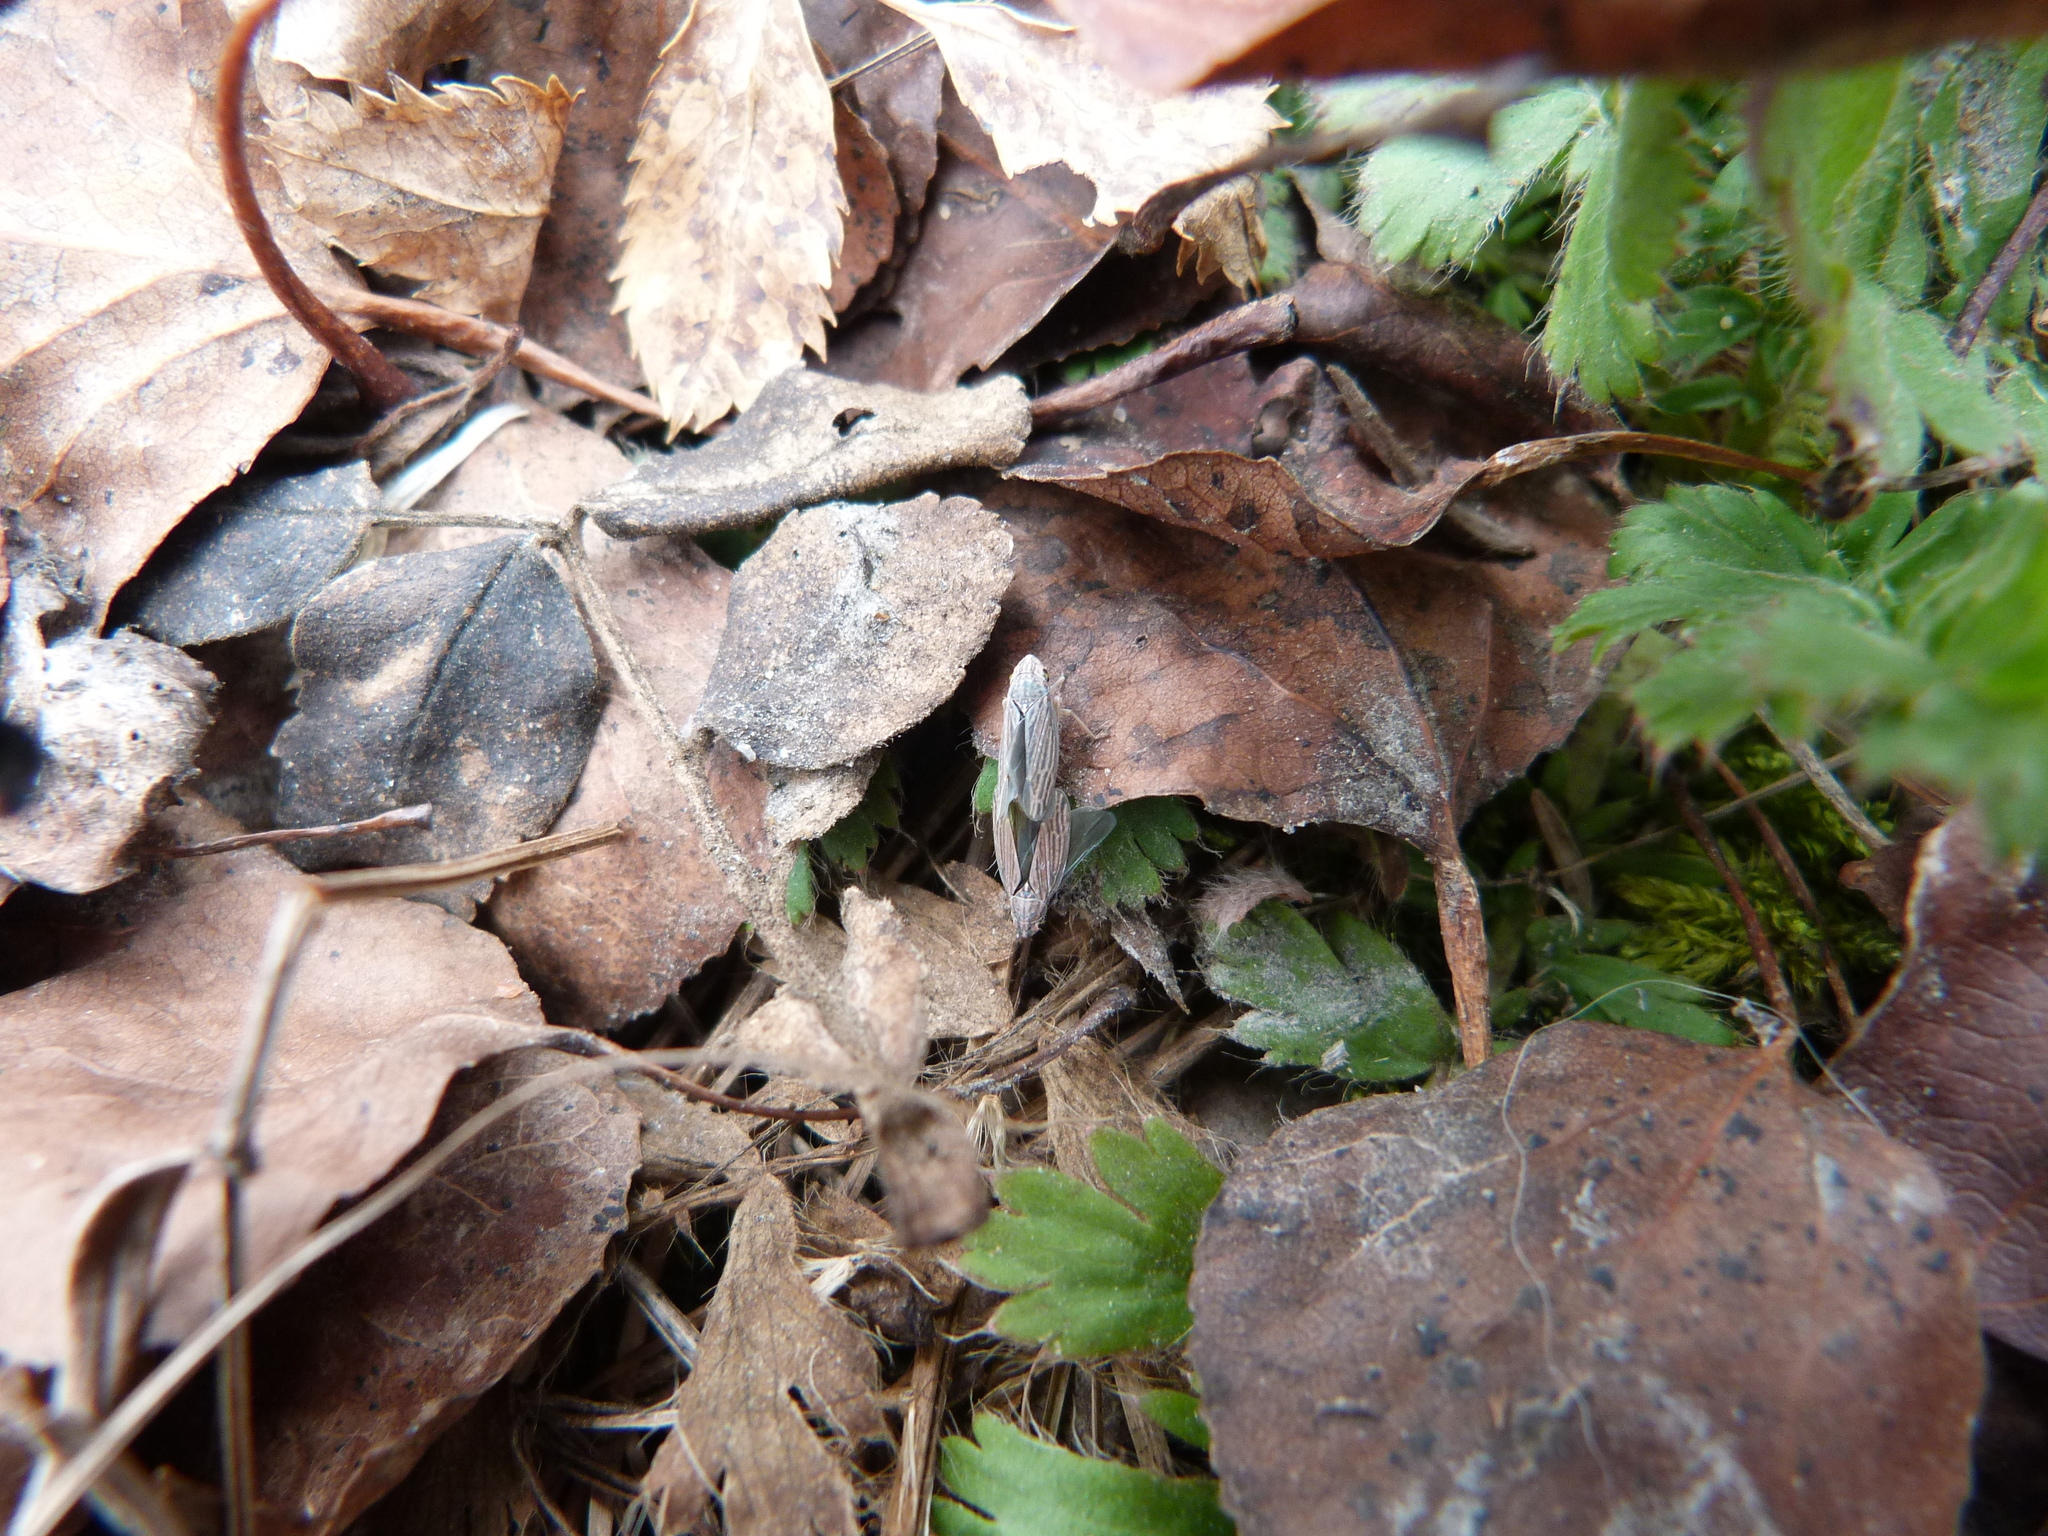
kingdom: Animalia
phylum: Arthropoda
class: Insecta
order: Hemiptera
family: Cicadellidae
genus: Neokolla
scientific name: Neokolla hieroglyphica
